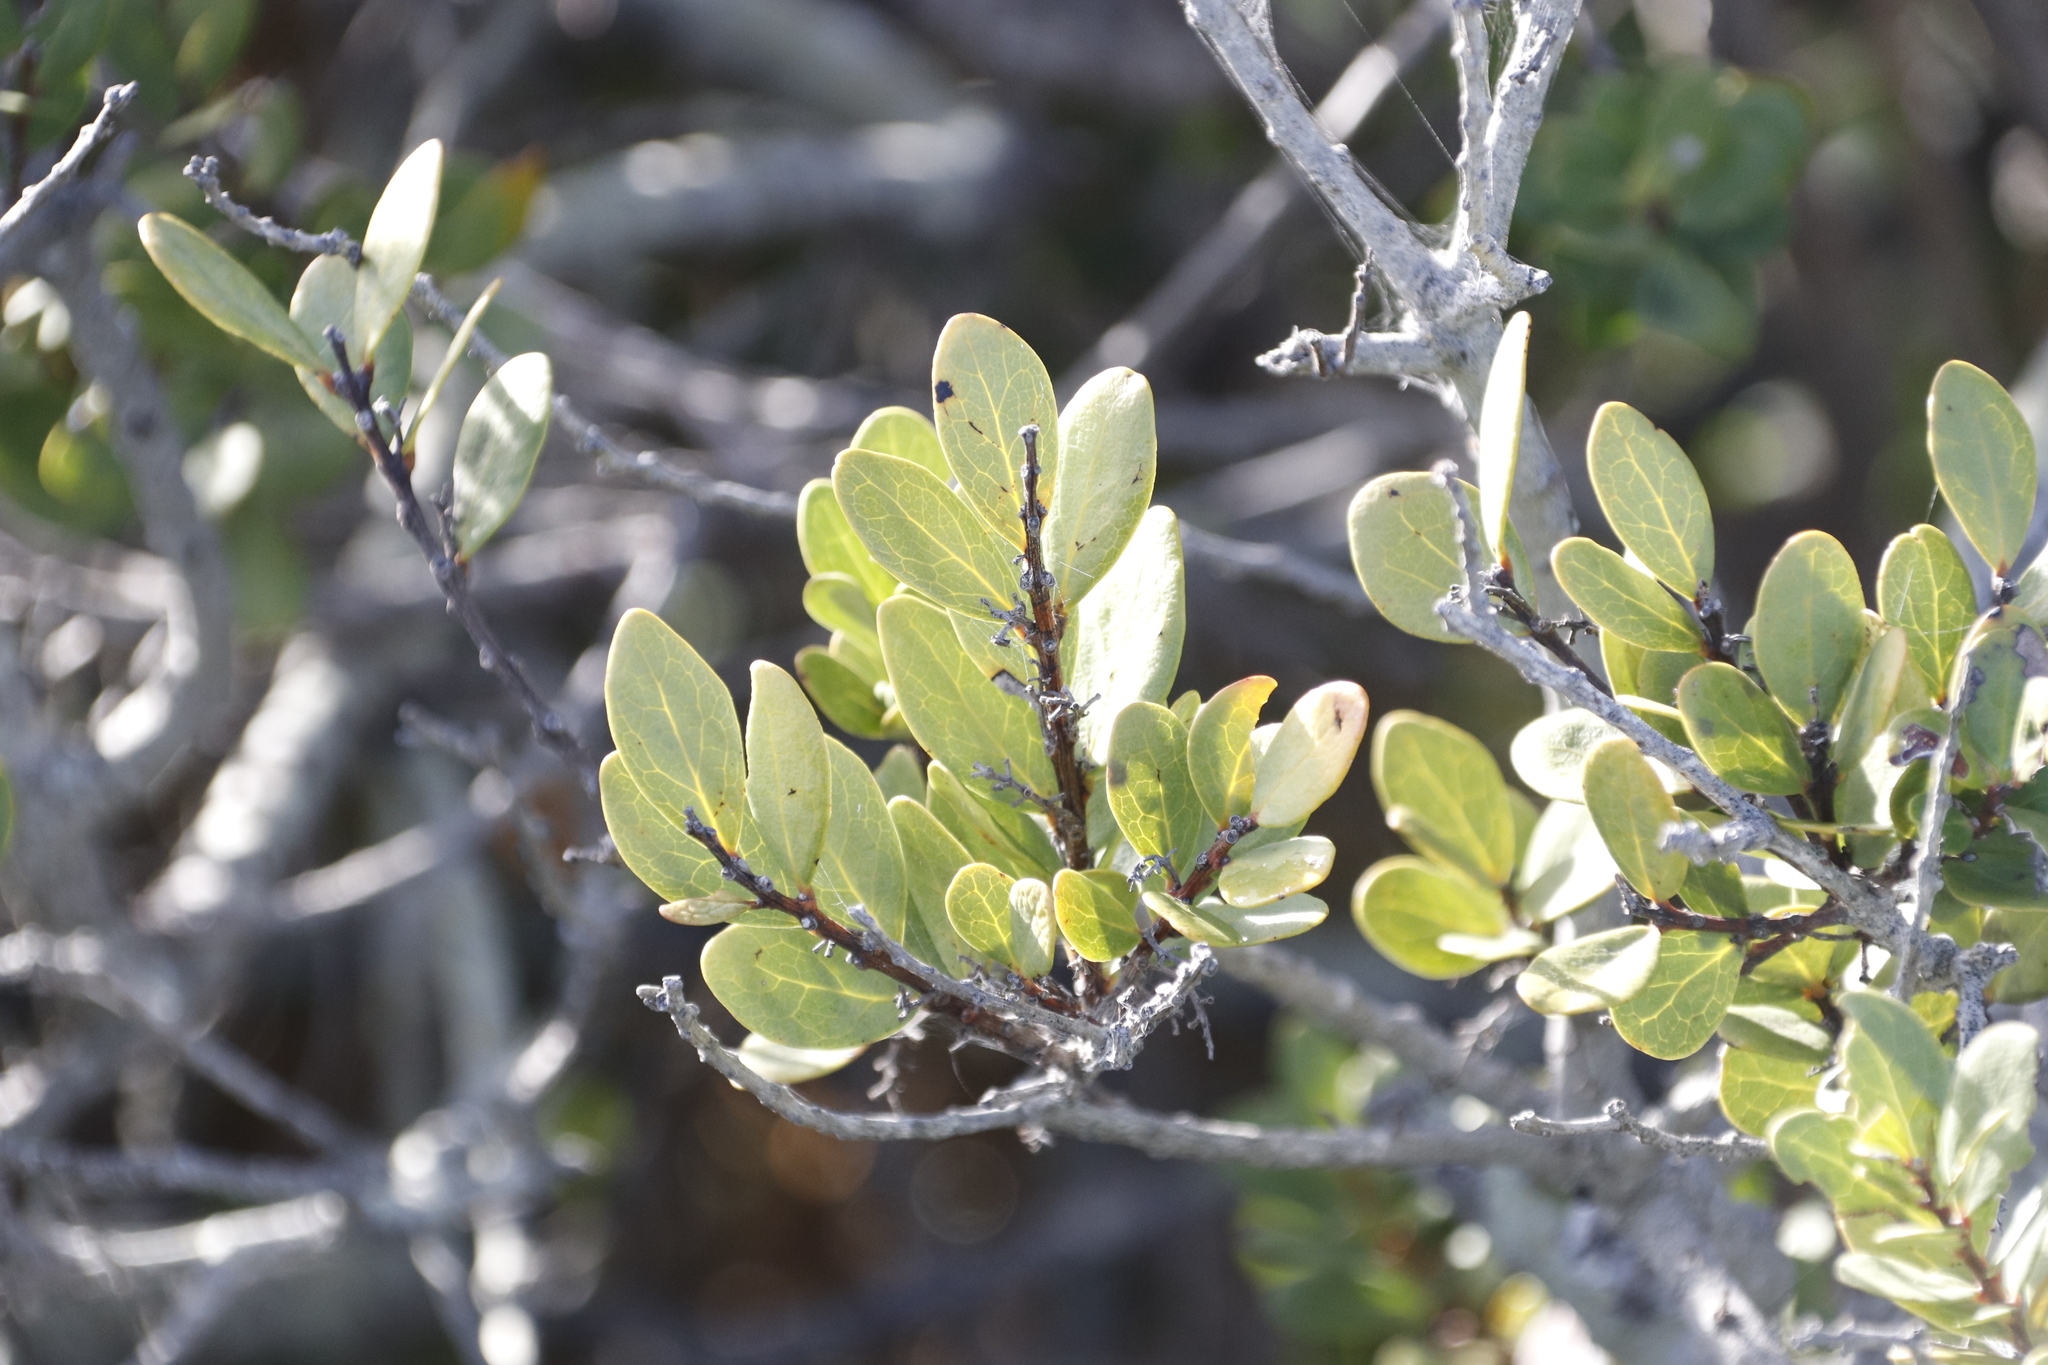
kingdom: Plantae
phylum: Tracheophyta
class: Magnoliopsida
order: Ericales
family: Ebenaceae
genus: Euclea
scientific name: Euclea racemosa
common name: Dune guarri
